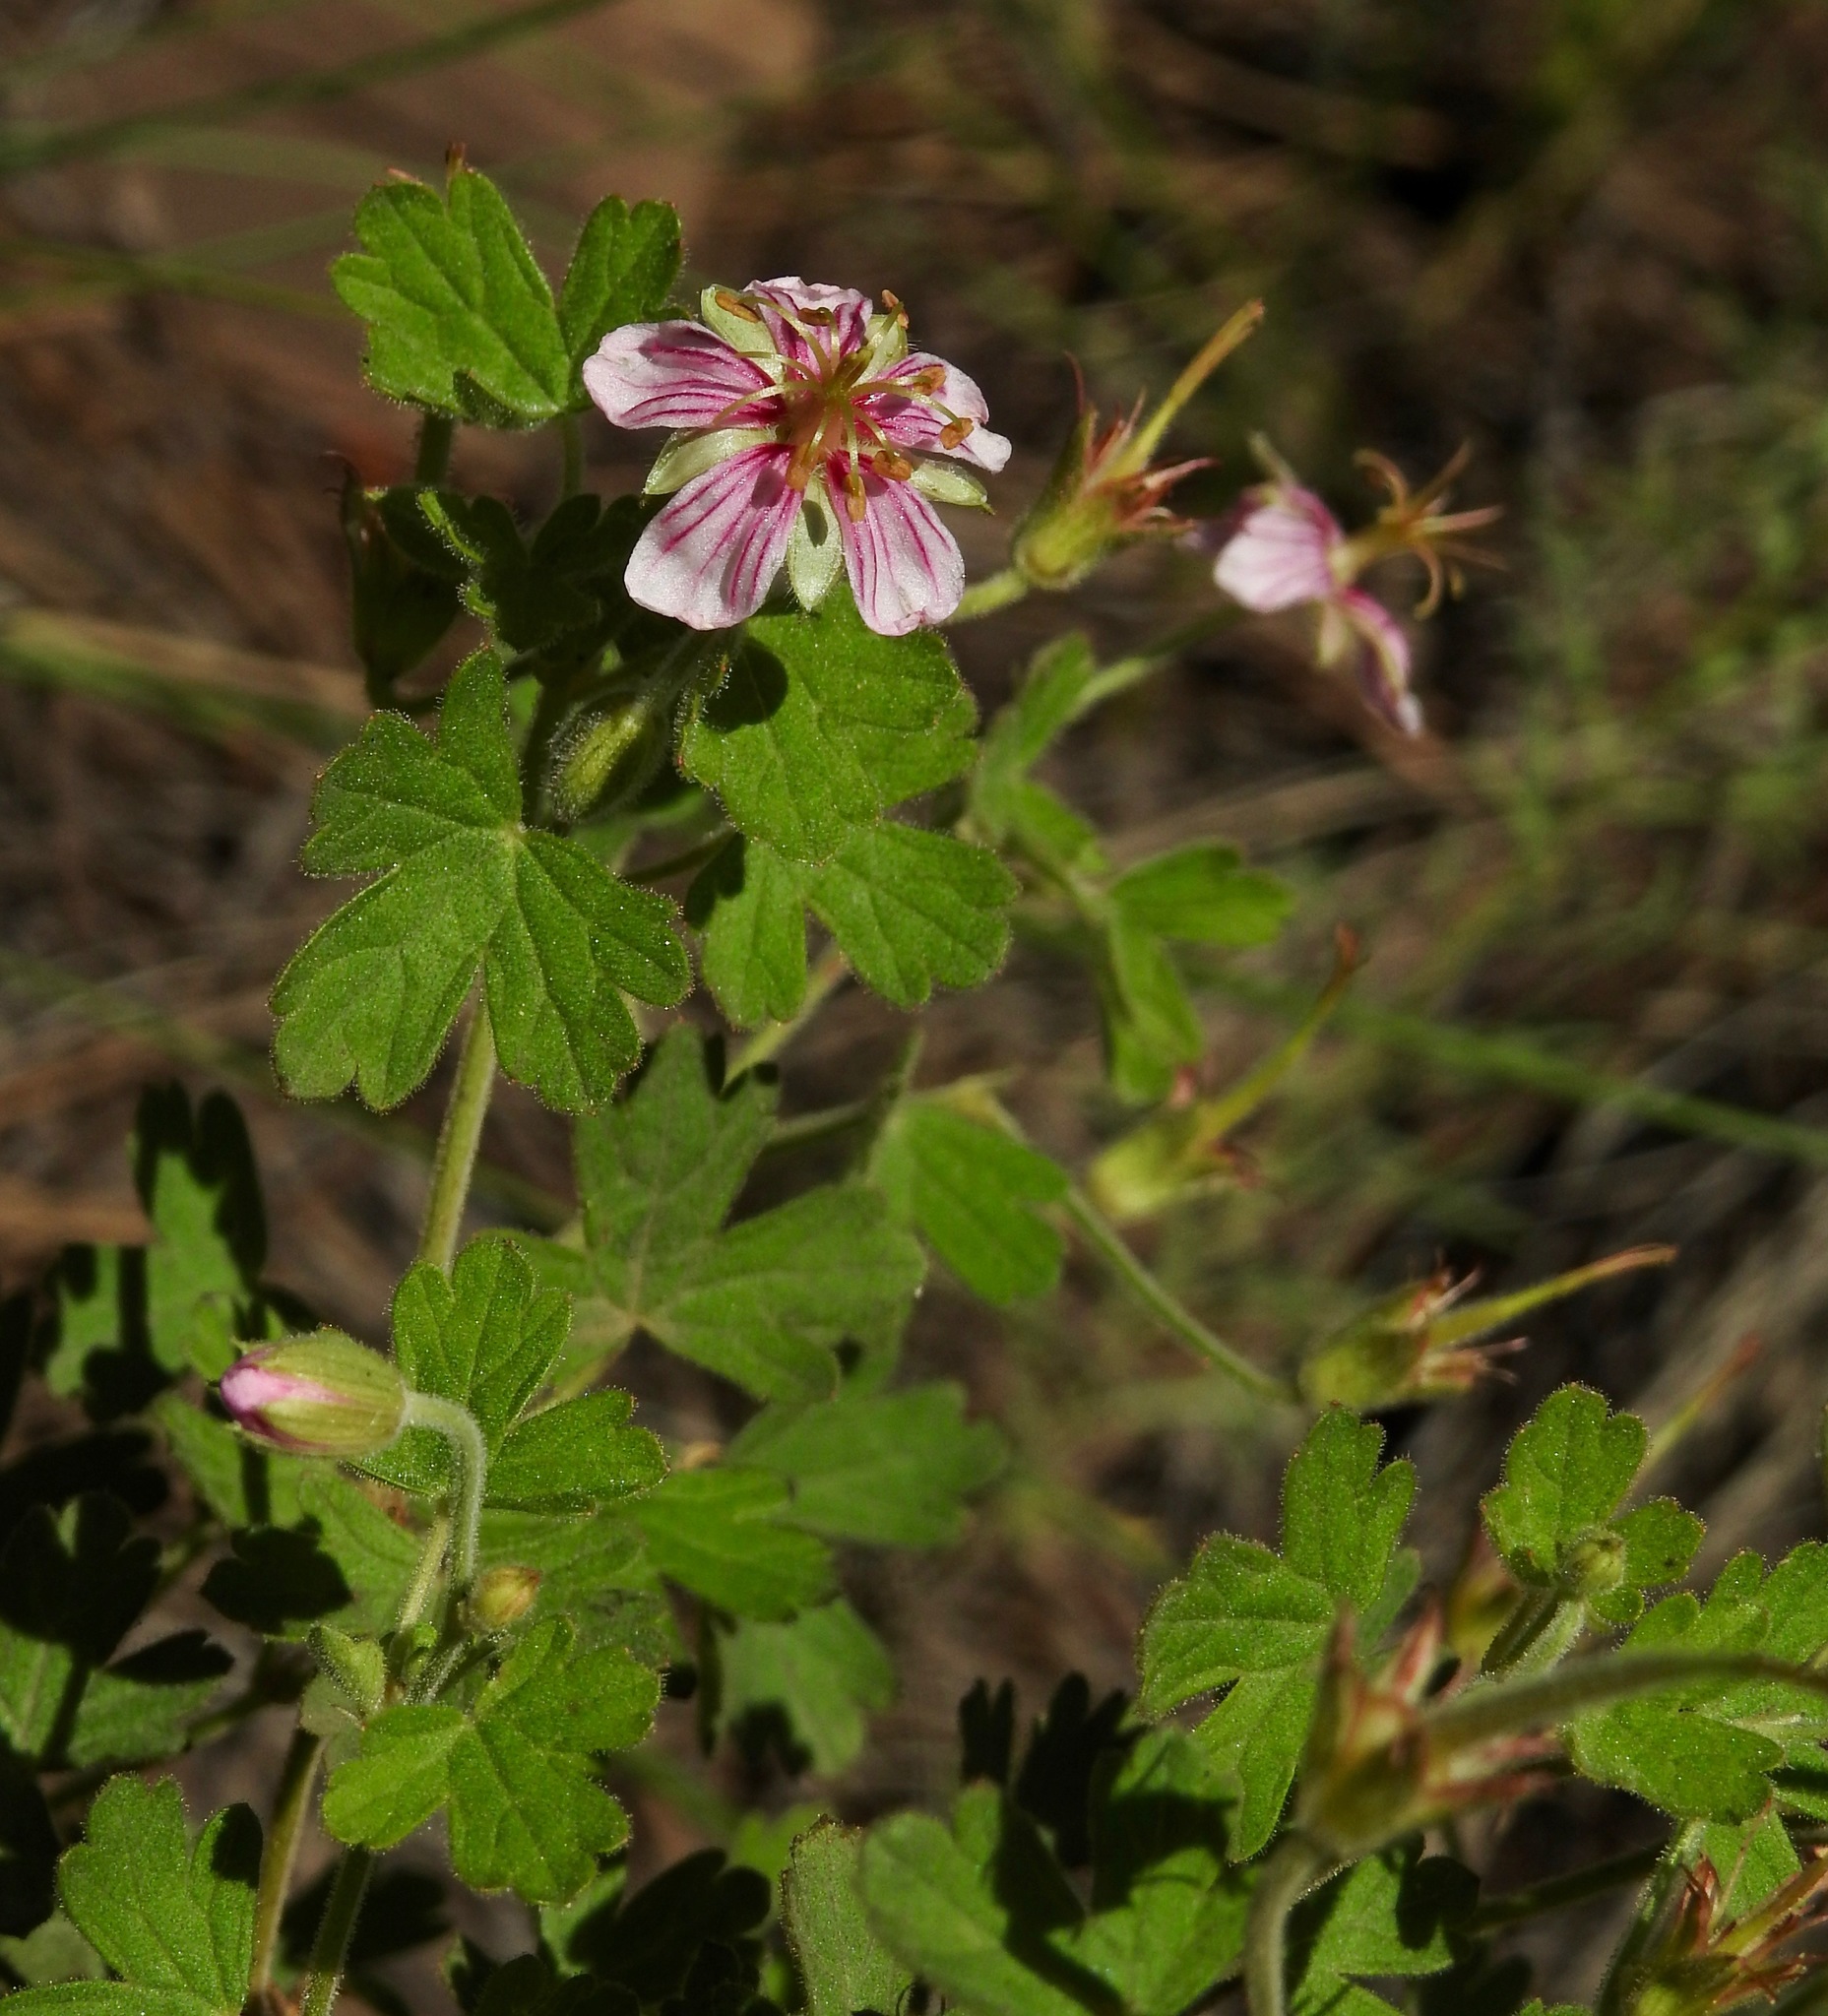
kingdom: Plantae
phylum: Tracheophyta
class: Magnoliopsida
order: Geraniales
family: Geraniaceae
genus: Geranium
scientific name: Geranium lentum
